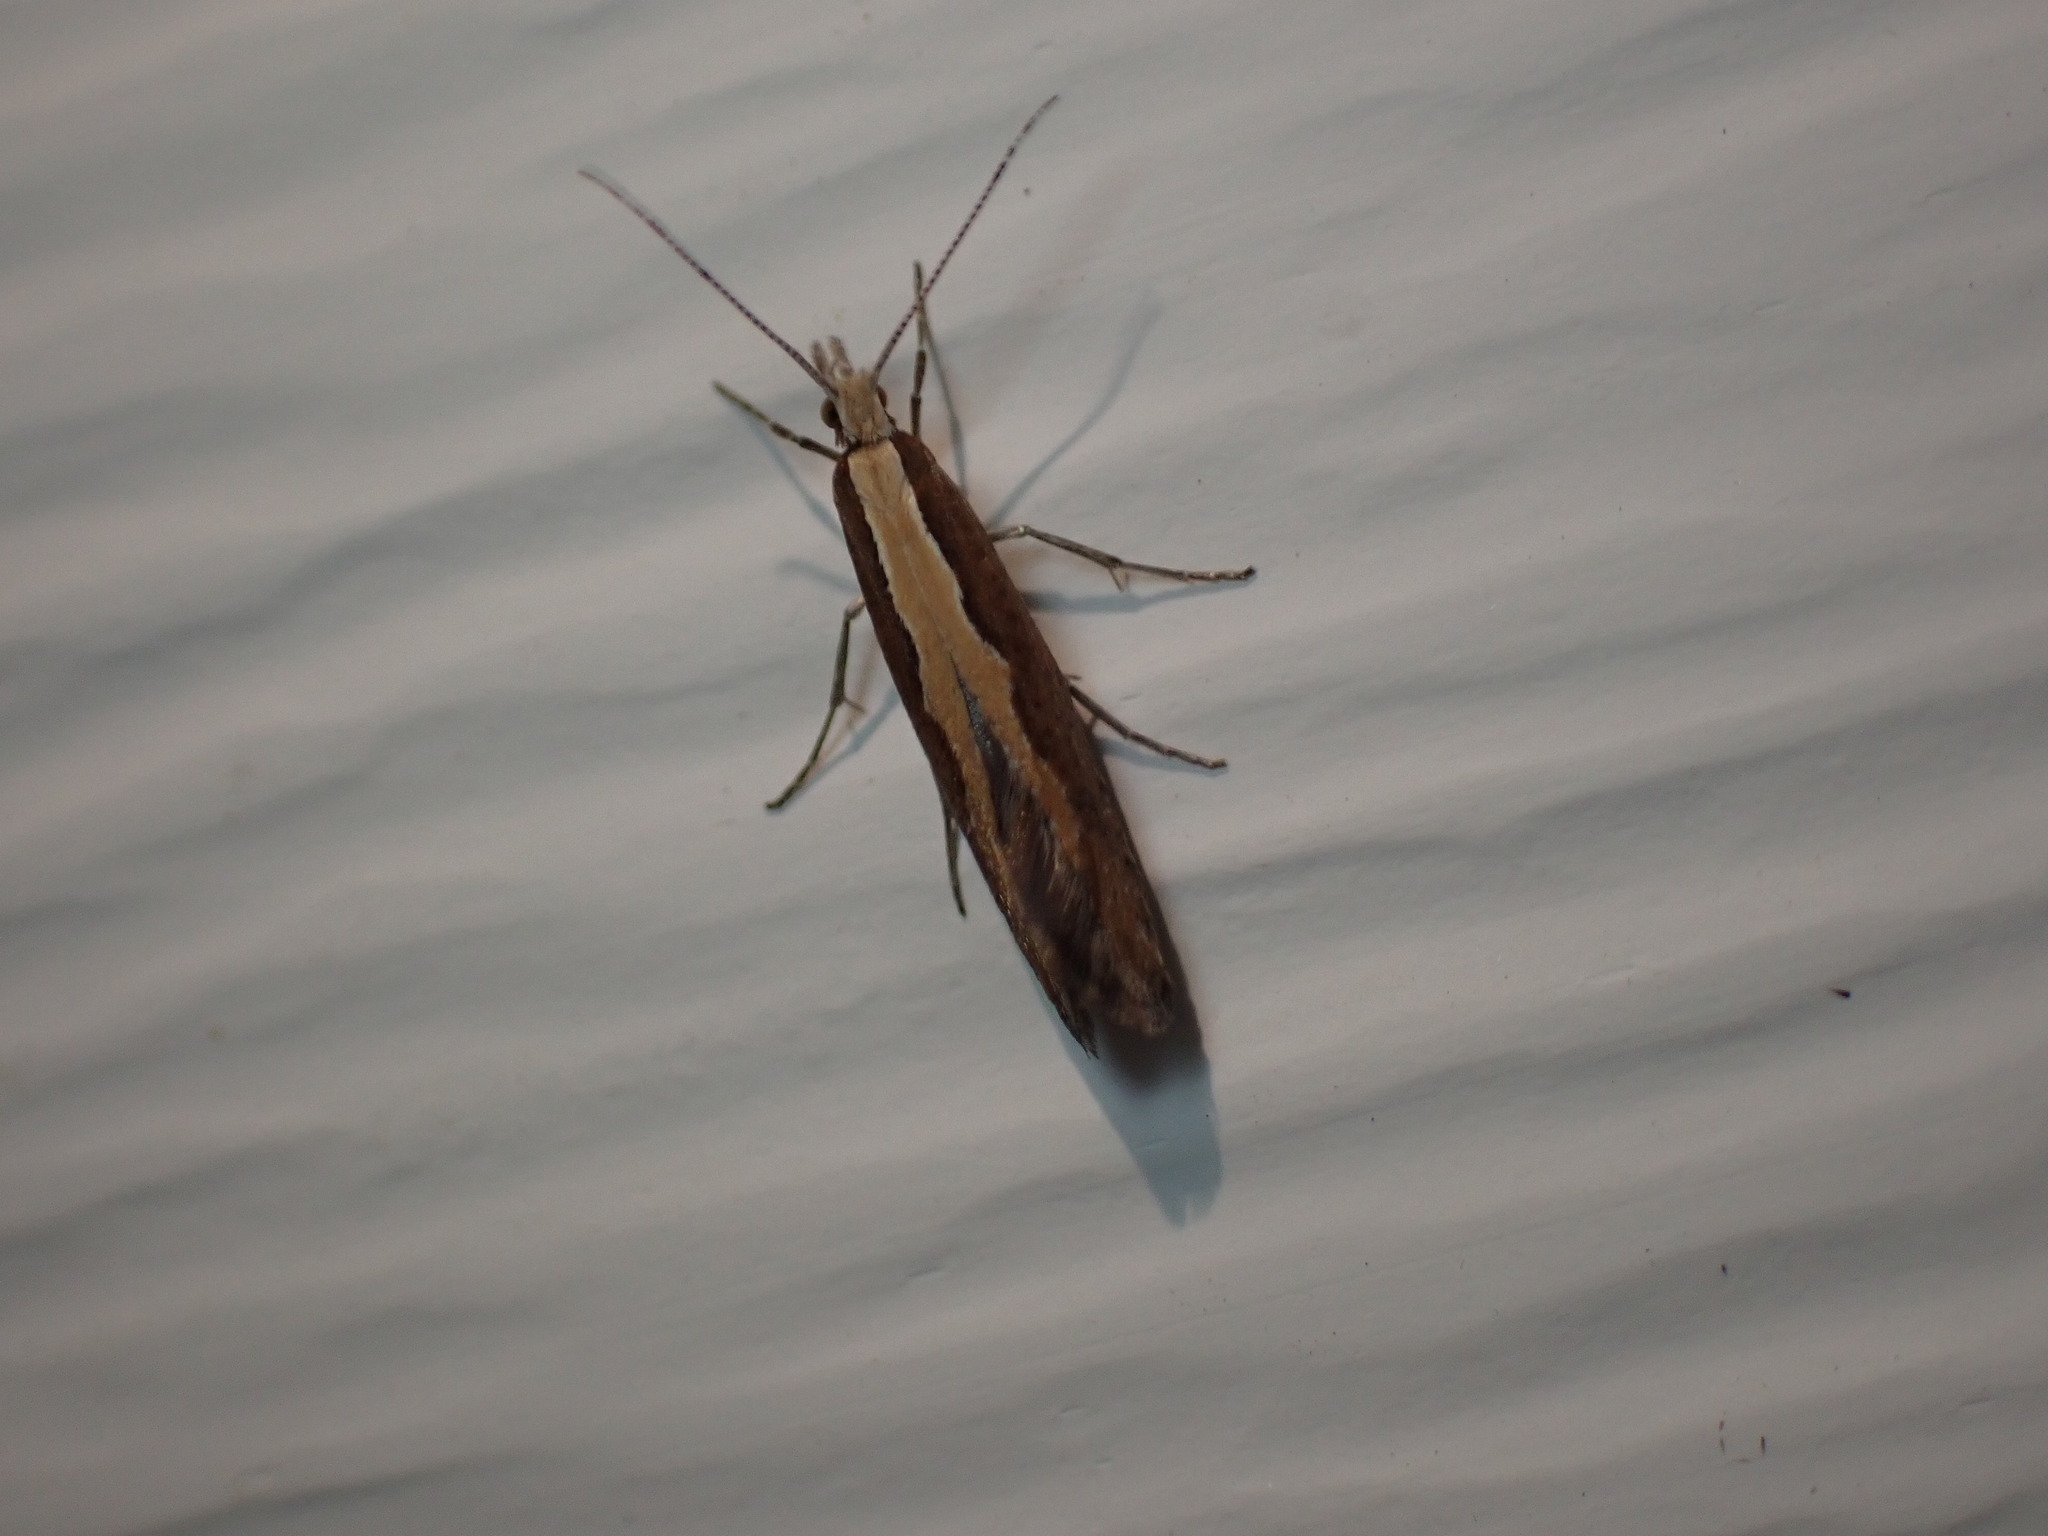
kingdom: Animalia
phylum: Arthropoda
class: Insecta
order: Lepidoptera
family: Plutellidae
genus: Plutella
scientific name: Plutella xylostella
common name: Diamond-back moth
